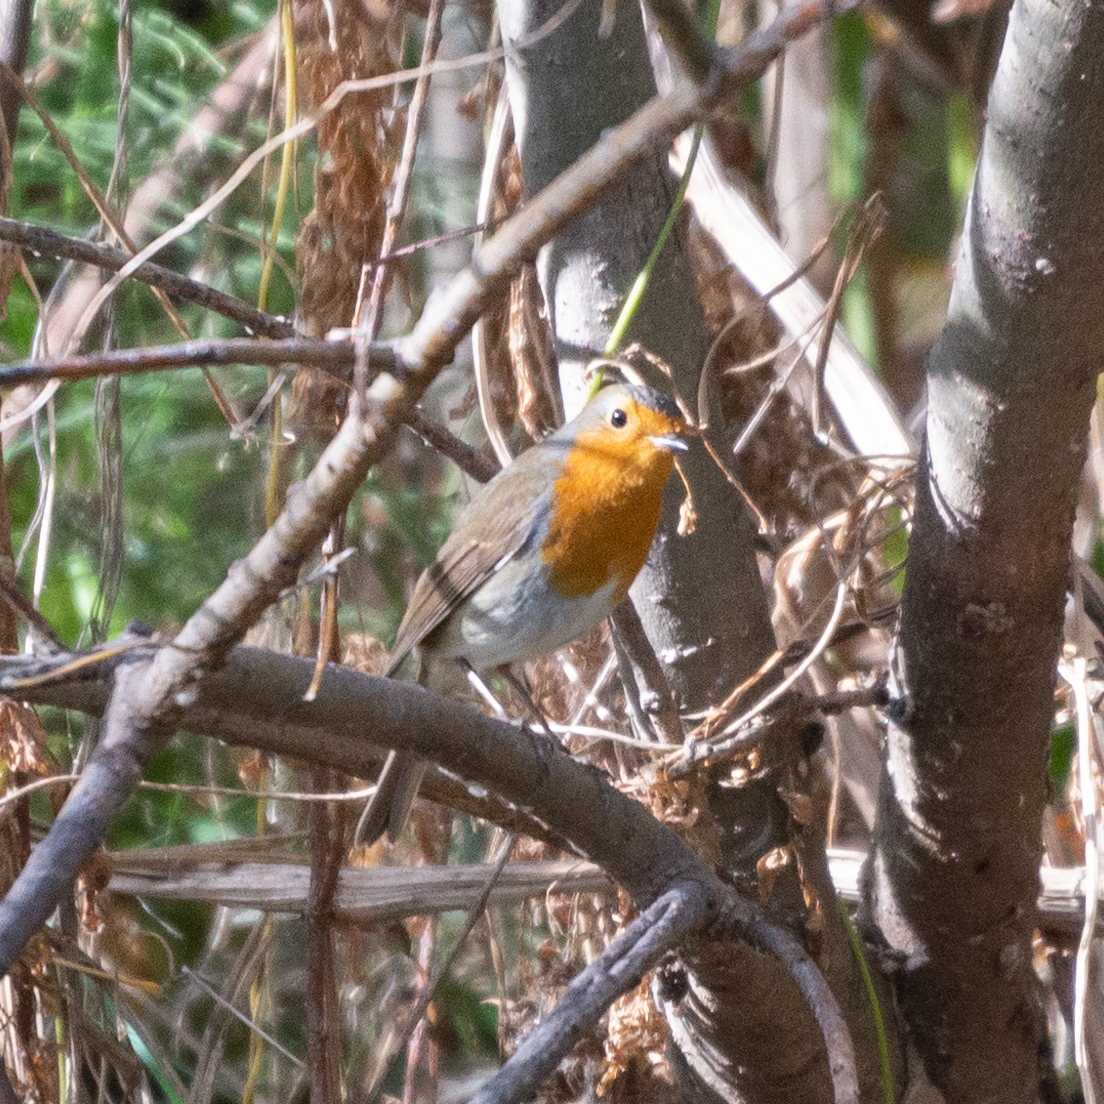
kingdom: Animalia
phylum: Chordata
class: Aves
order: Passeriformes
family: Muscicapidae
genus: Erithacus
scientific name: Erithacus rubecula
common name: European robin
